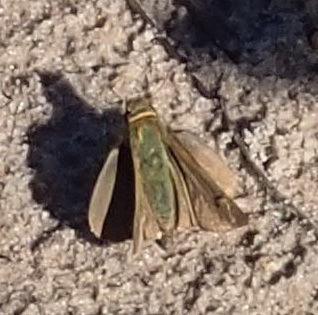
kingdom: Animalia
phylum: Arthropoda
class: Insecta
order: Lepidoptera
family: Hesperiidae
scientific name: Hesperiidae
